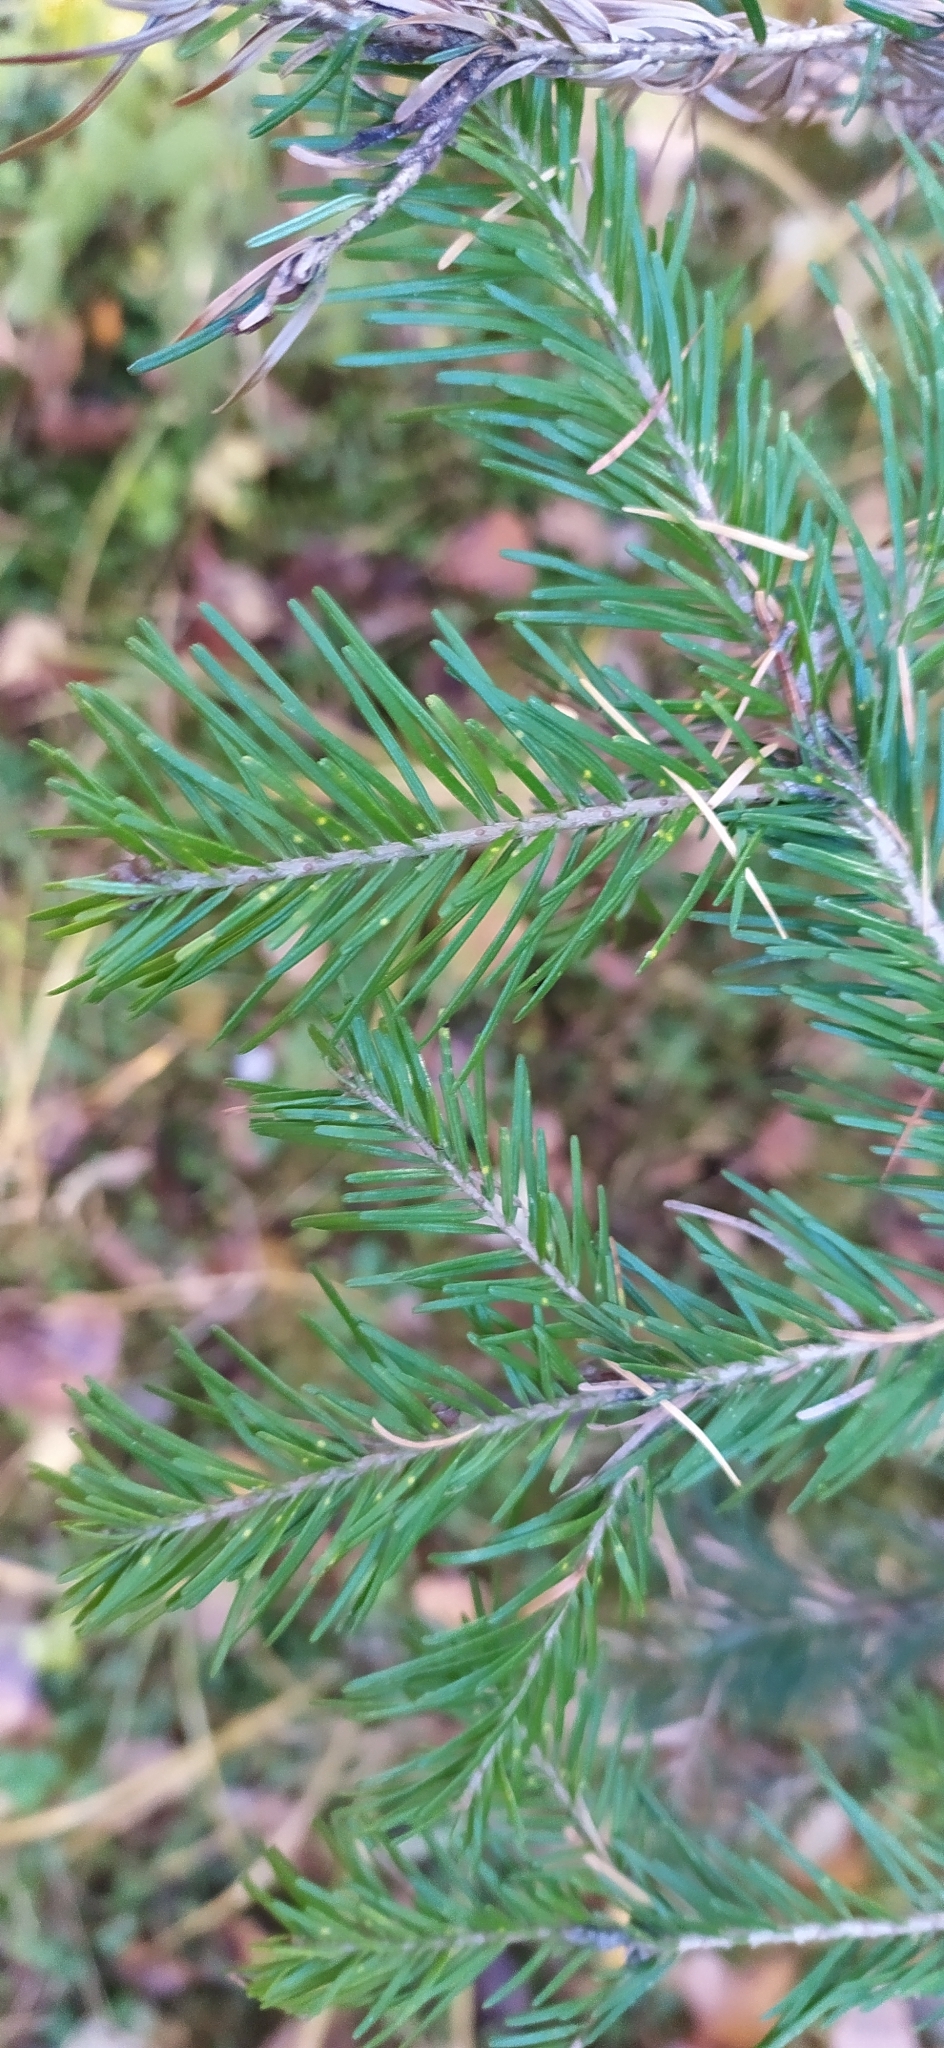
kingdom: Plantae
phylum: Tracheophyta
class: Pinopsida
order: Pinales
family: Pinaceae
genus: Abies
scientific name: Abies sibirica
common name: Siberian fir
